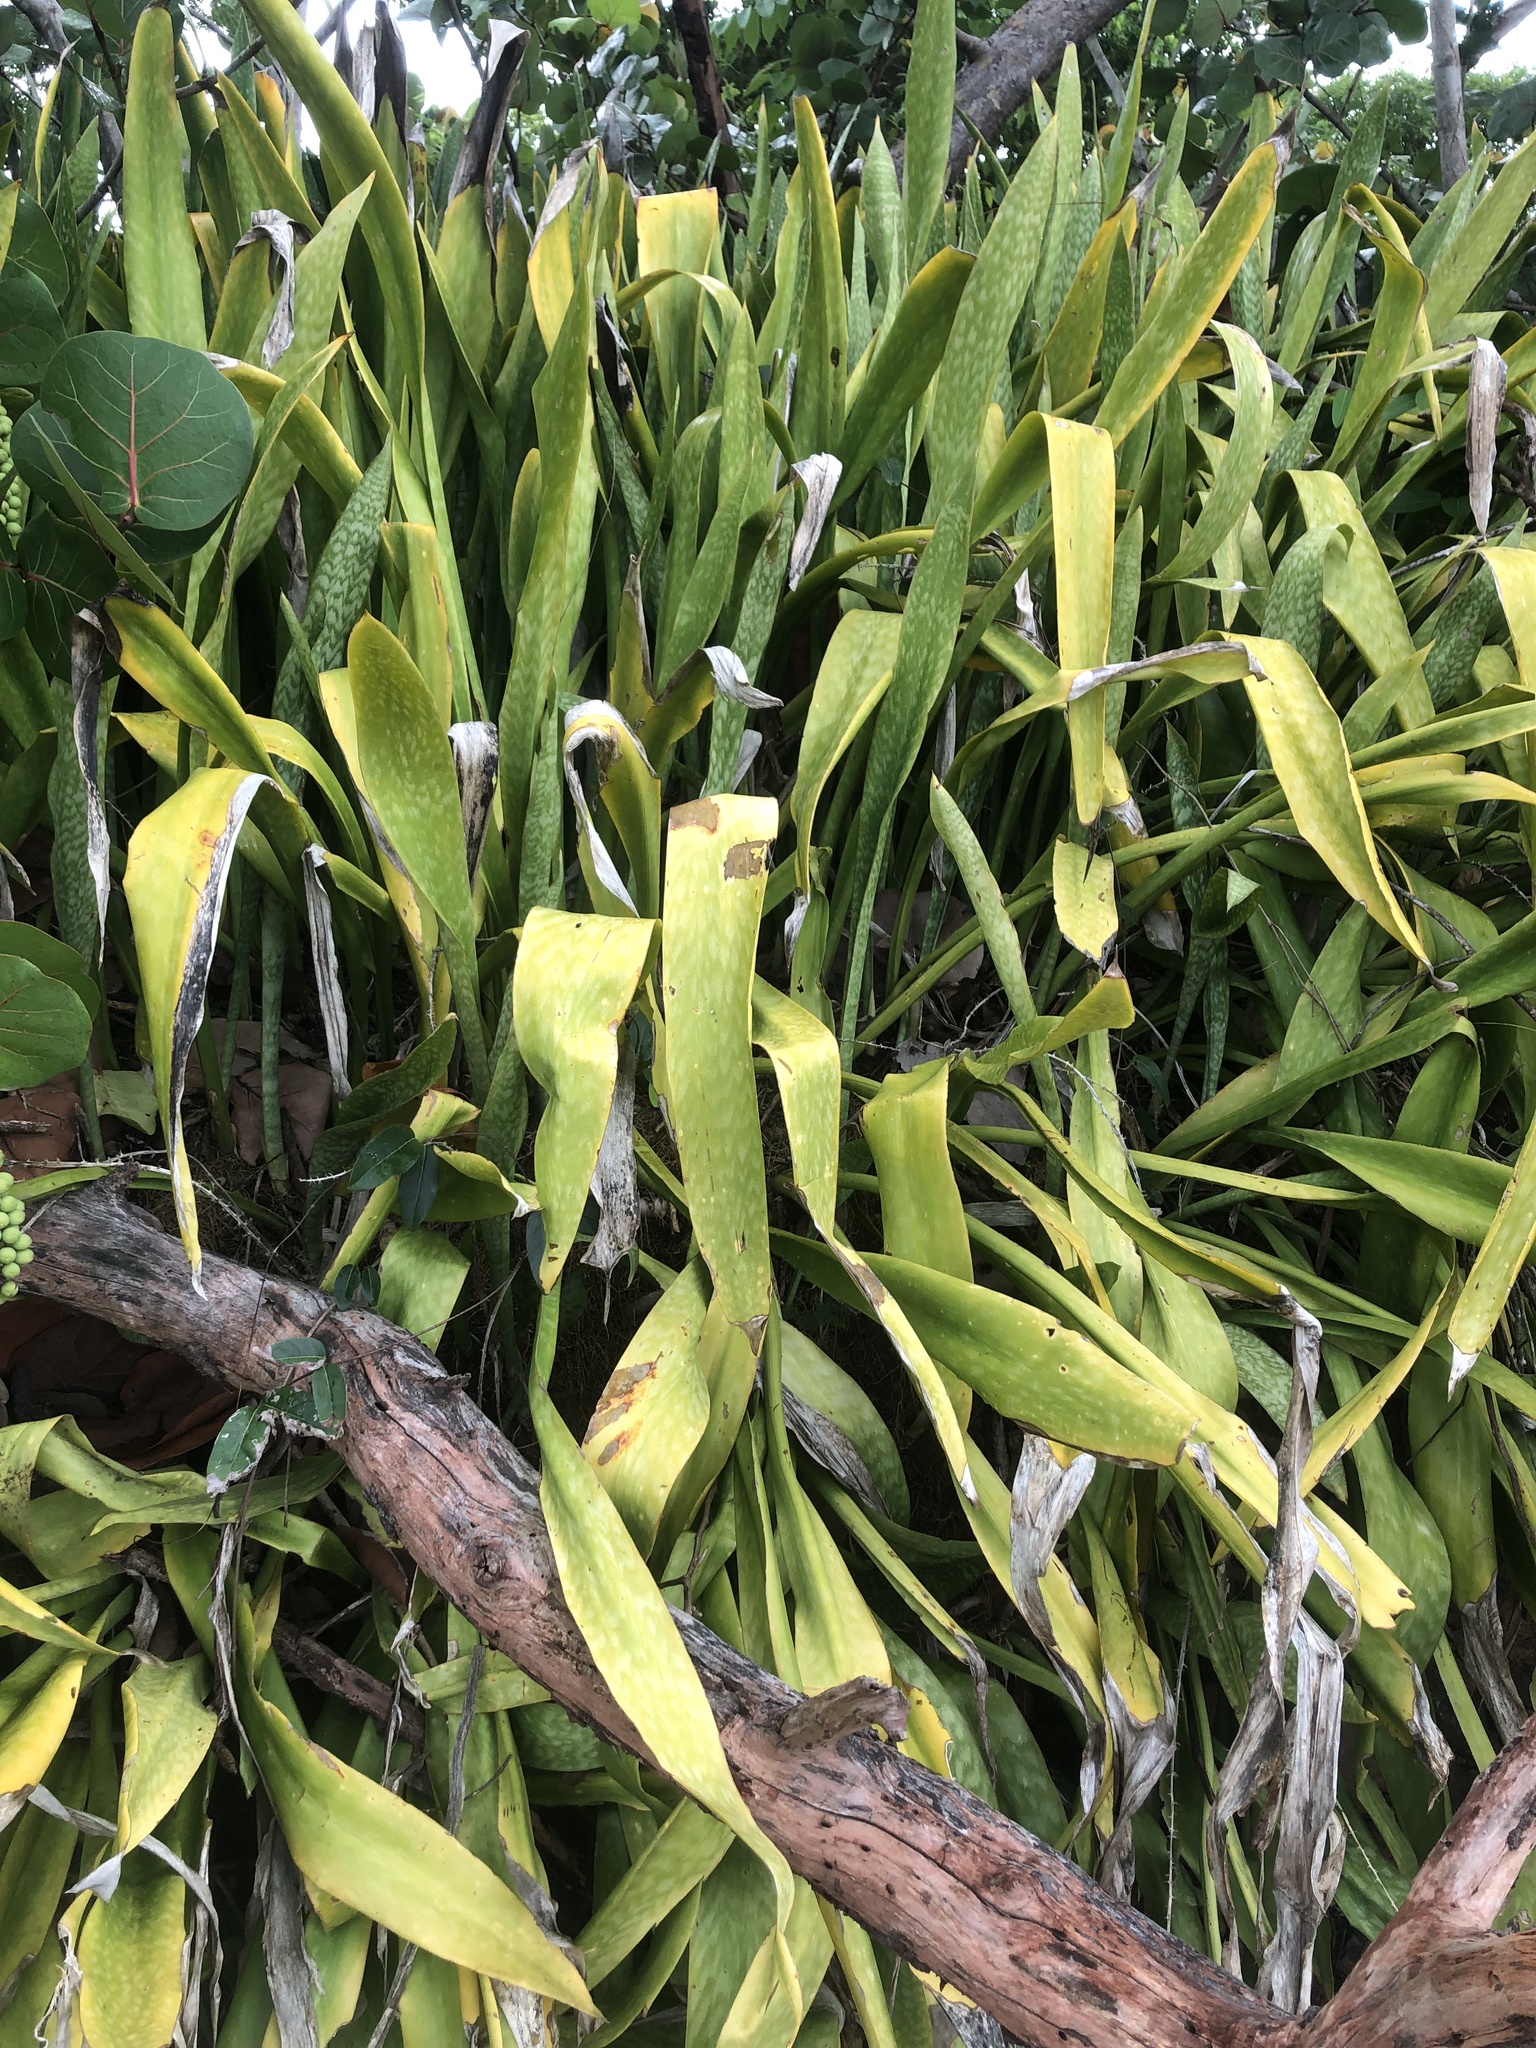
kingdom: Plantae
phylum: Tracheophyta
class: Liliopsida
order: Asparagales
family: Asparagaceae
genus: Dracaena
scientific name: Dracaena hyacinthoides
